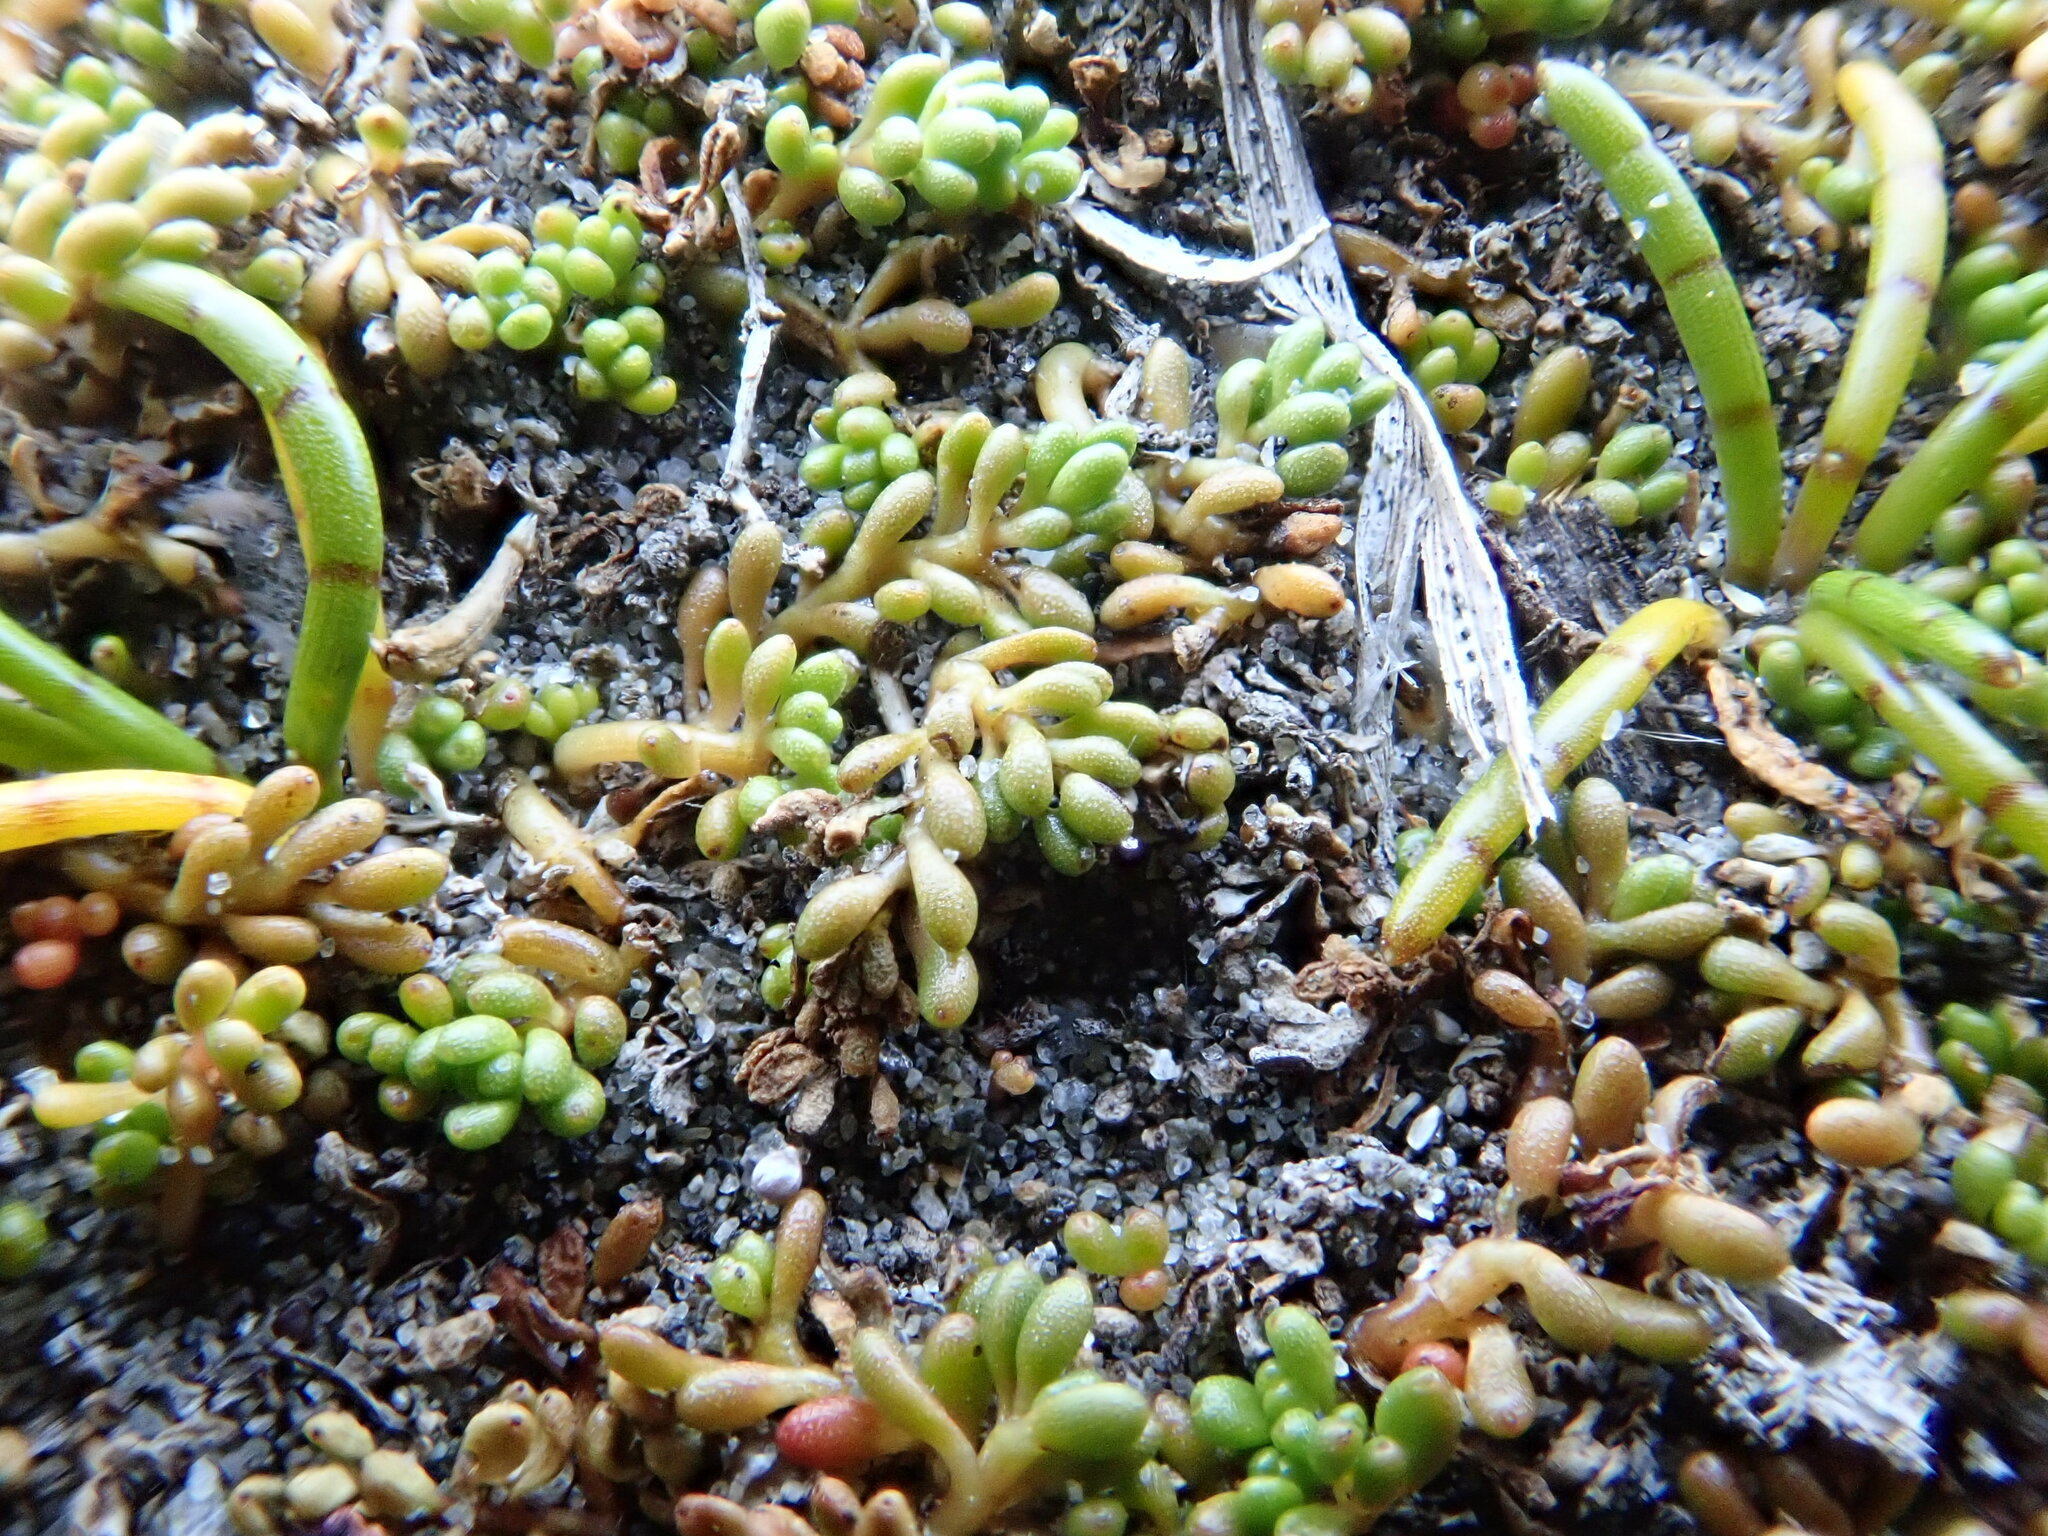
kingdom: Plantae
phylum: Tracheophyta
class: Magnoliopsida
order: Saxifragales
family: Haloragaceae
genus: Myriophyllum
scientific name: Myriophyllum votschii
